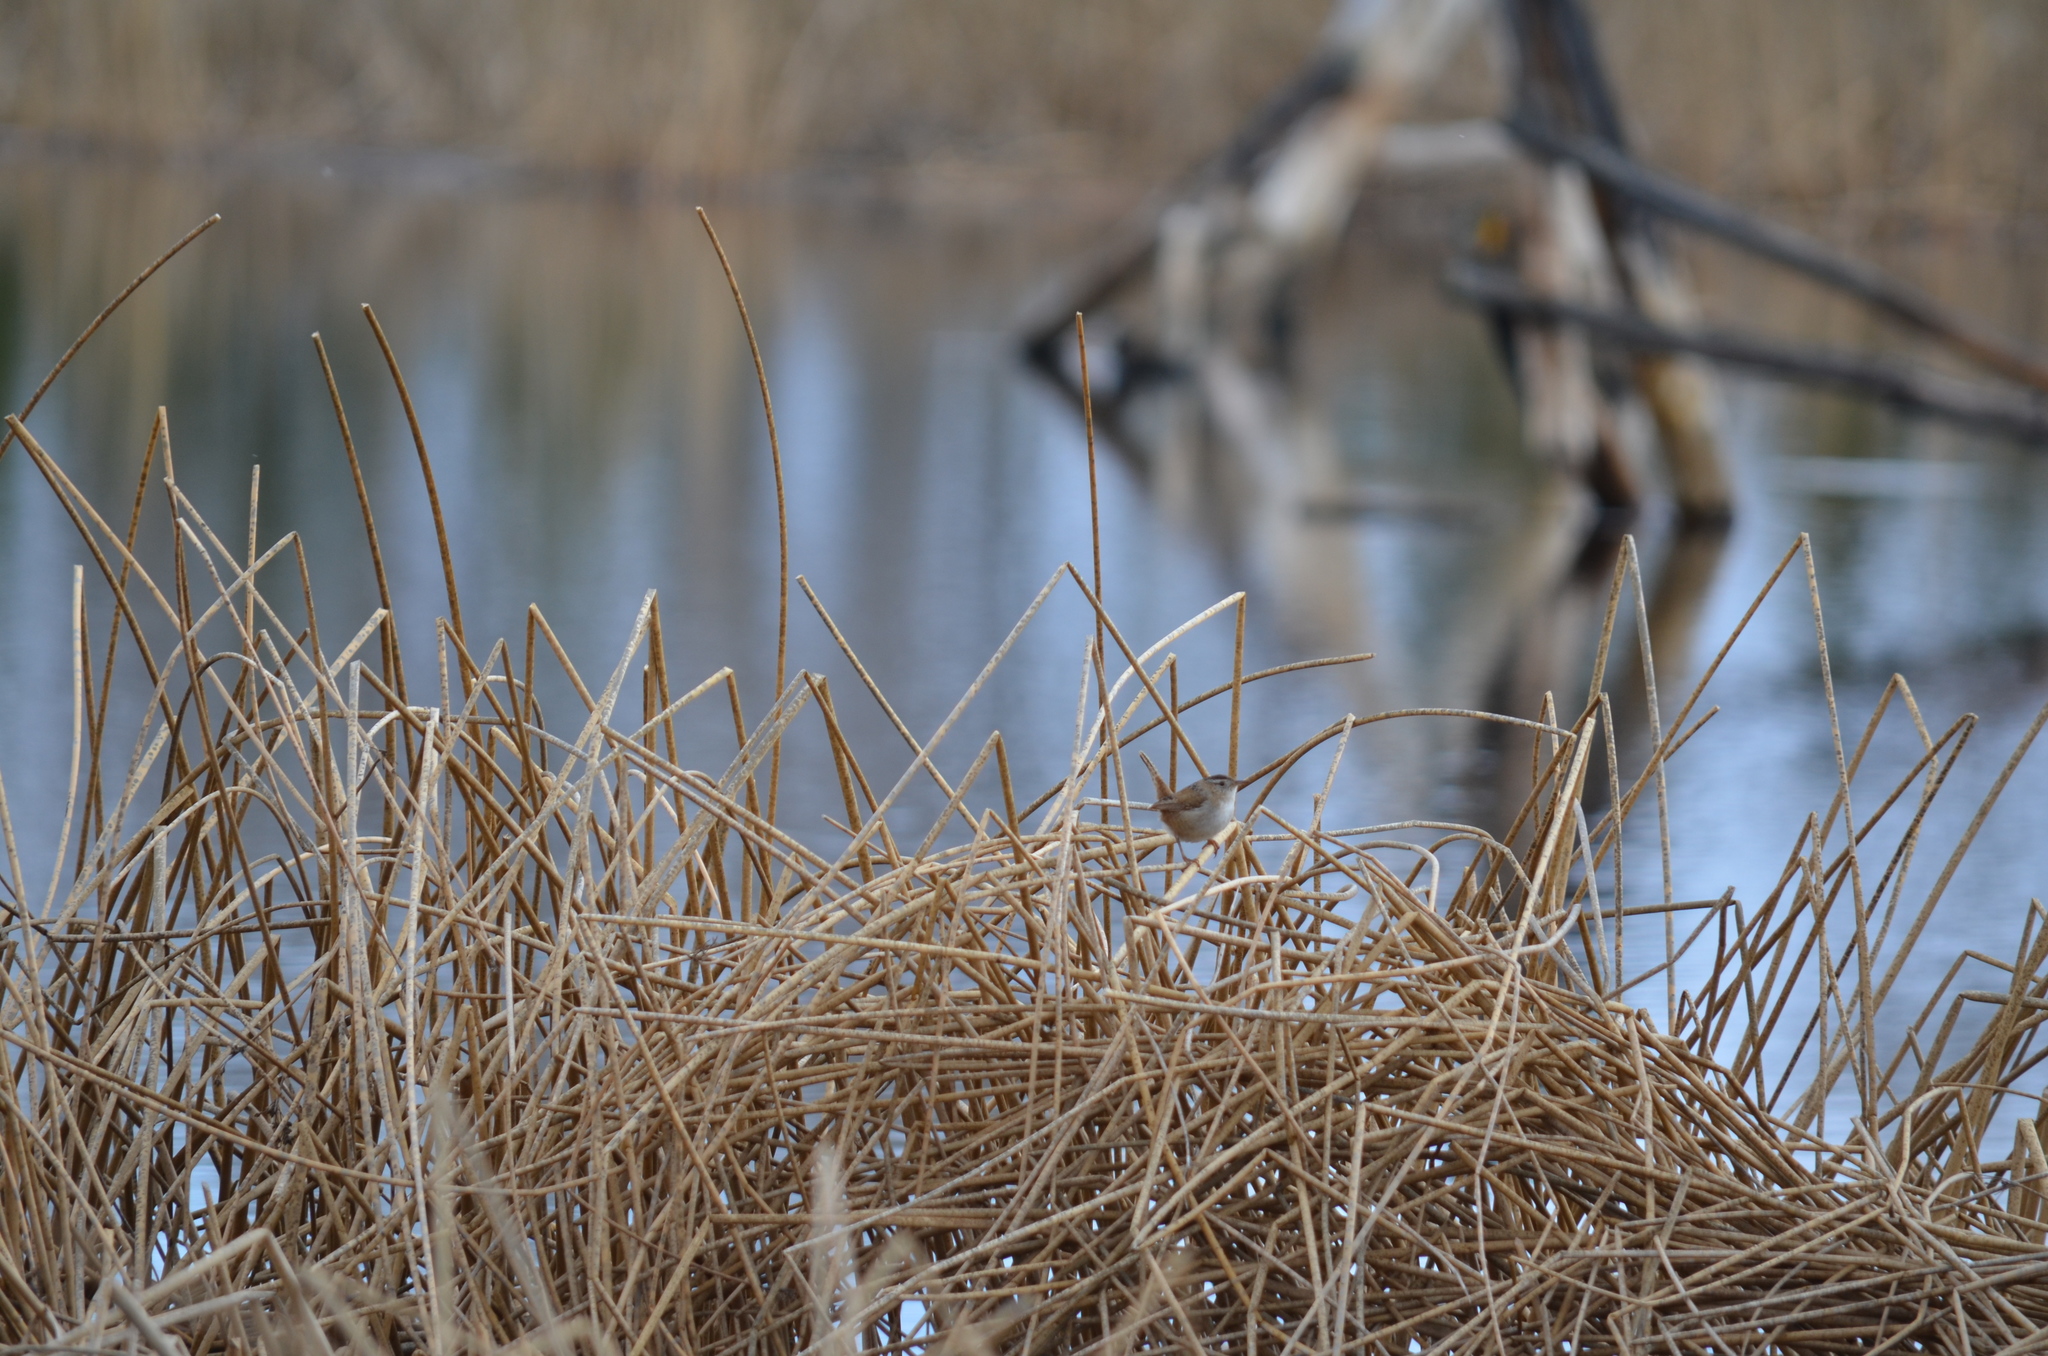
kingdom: Animalia
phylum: Chordata
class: Aves
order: Passeriformes
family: Troglodytidae
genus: Cistothorus
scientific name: Cistothorus palustris
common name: Marsh wren
